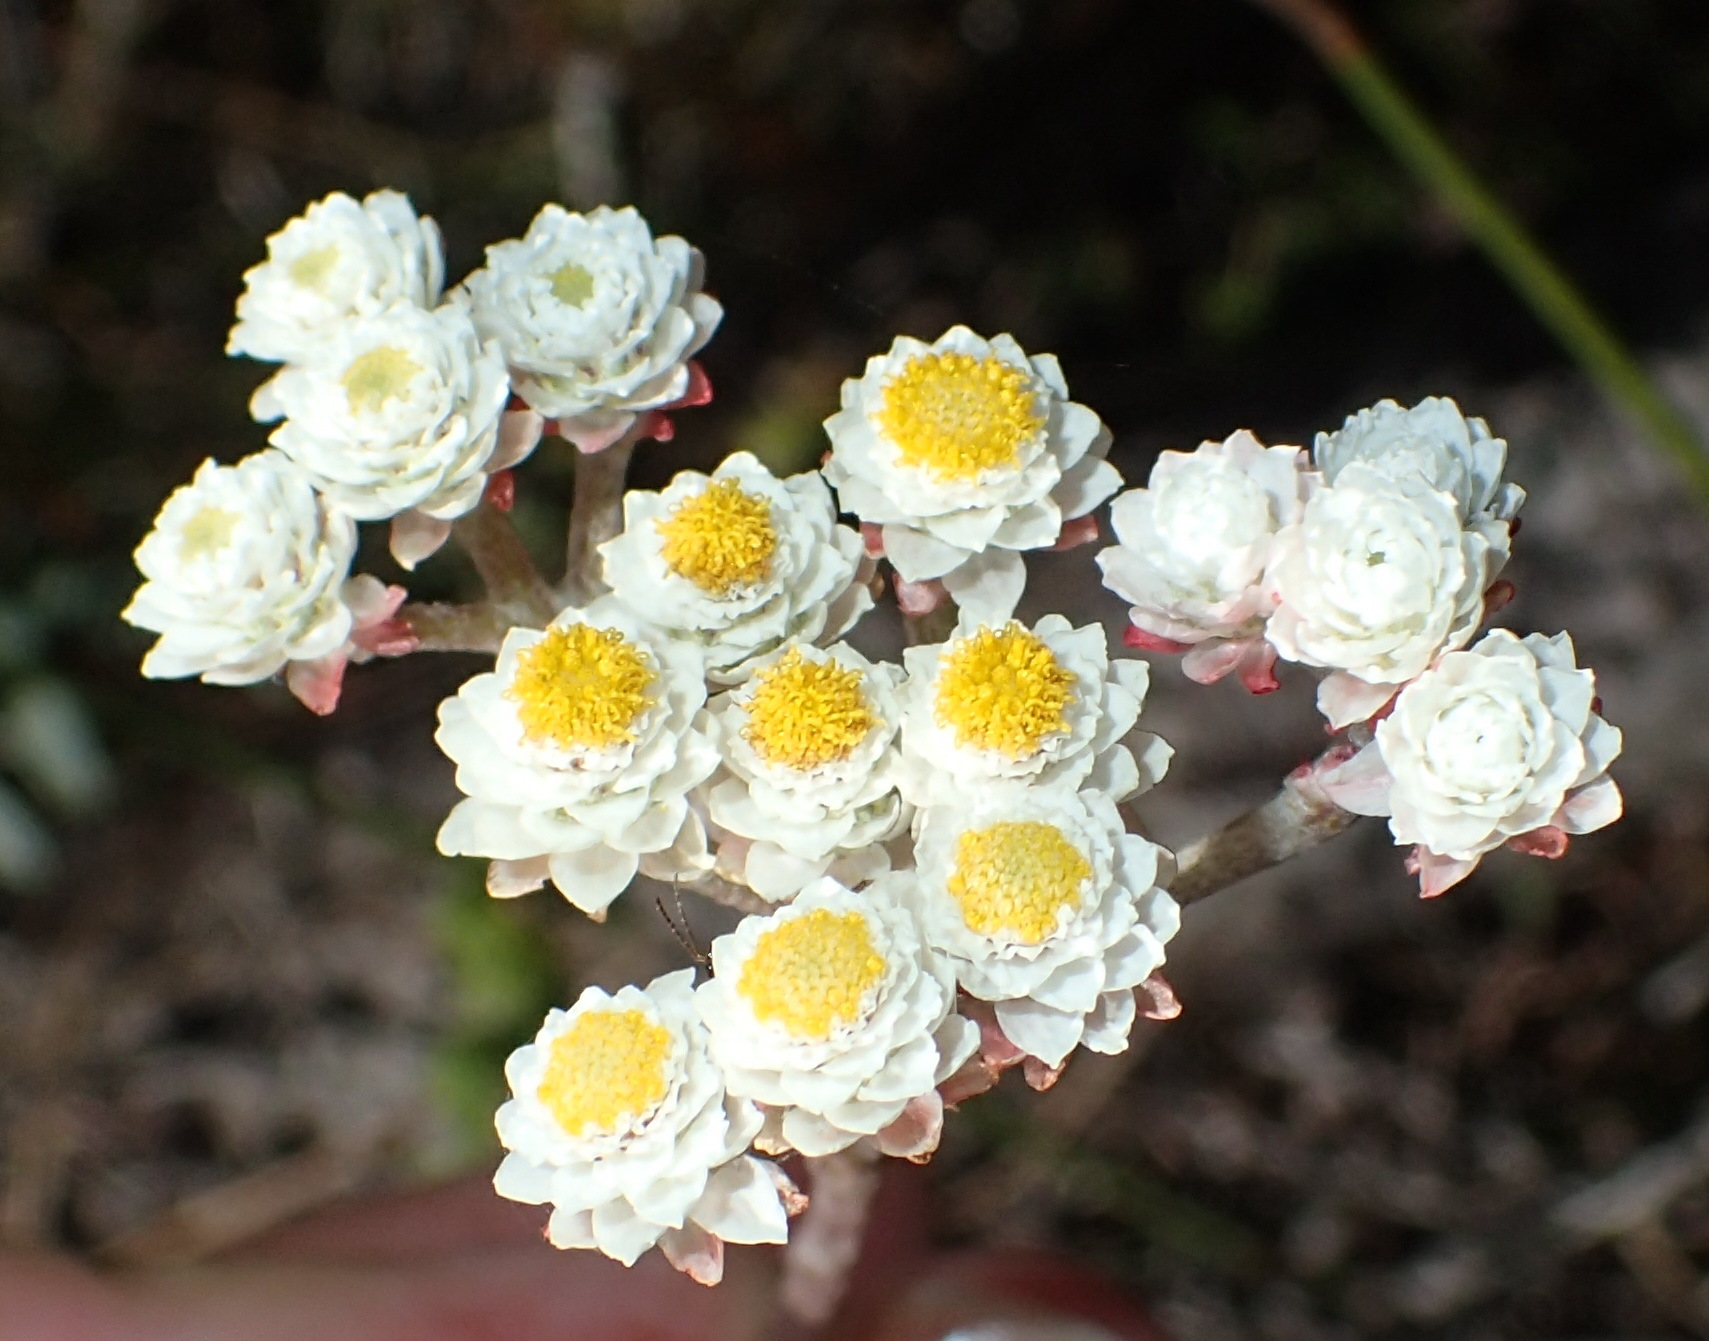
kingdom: Plantae
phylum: Tracheophyta
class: Magnoliopsida
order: Asterales
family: Asteraceae
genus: Helichrysum
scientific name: Helichrysum felinum
